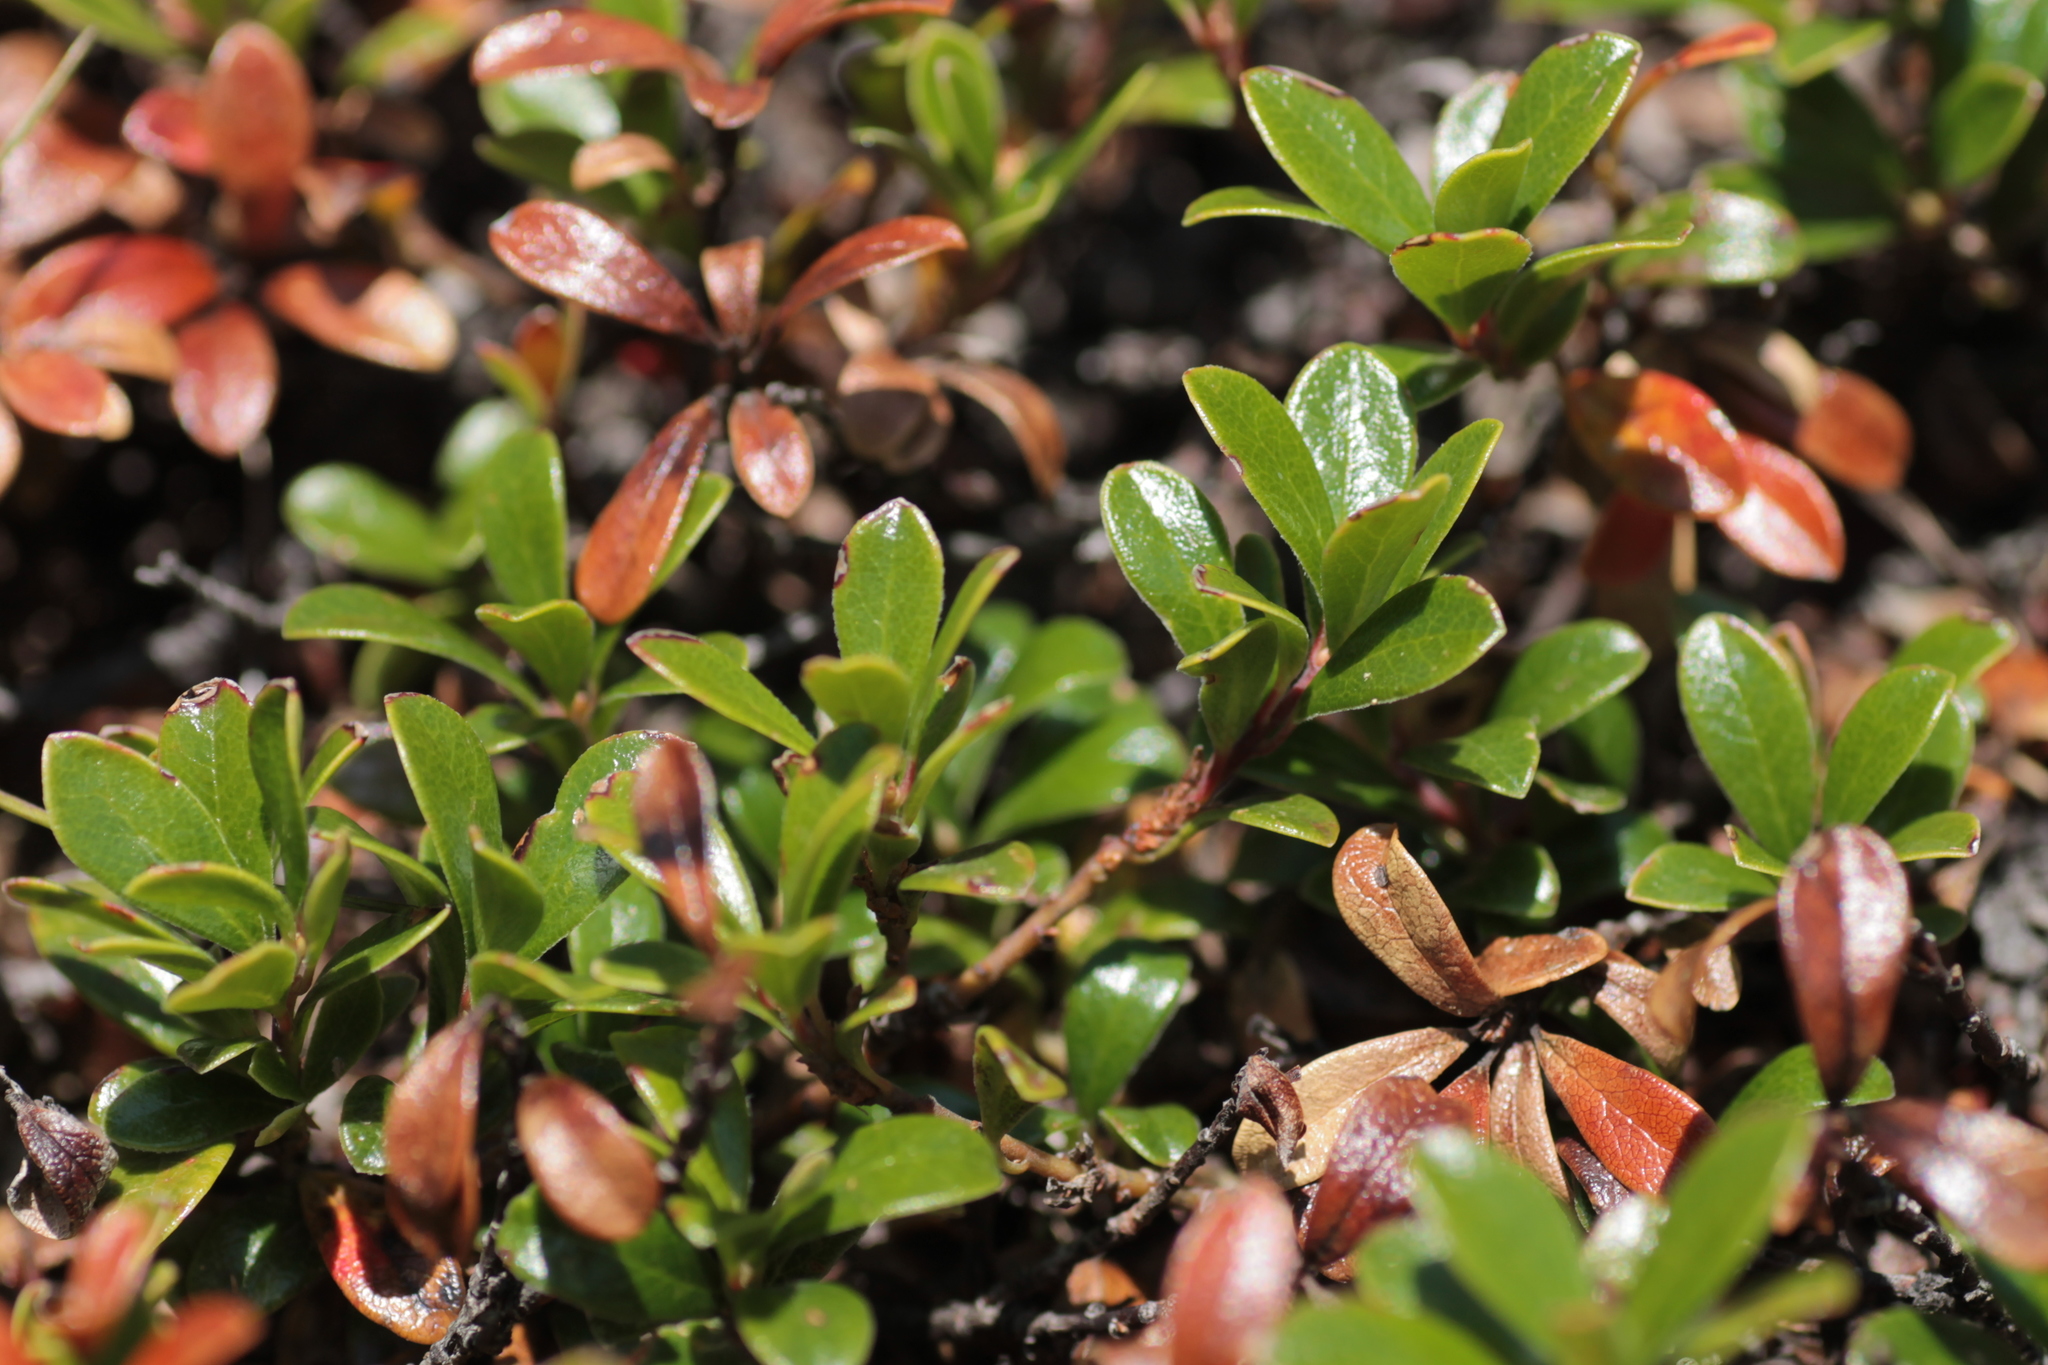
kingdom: Plantae
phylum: Tracheophyta
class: Magnoliopsida
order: Ericales
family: Ericaceae
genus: Rhododendron
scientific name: Rhododendron ferrugineum
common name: Alpenrose
